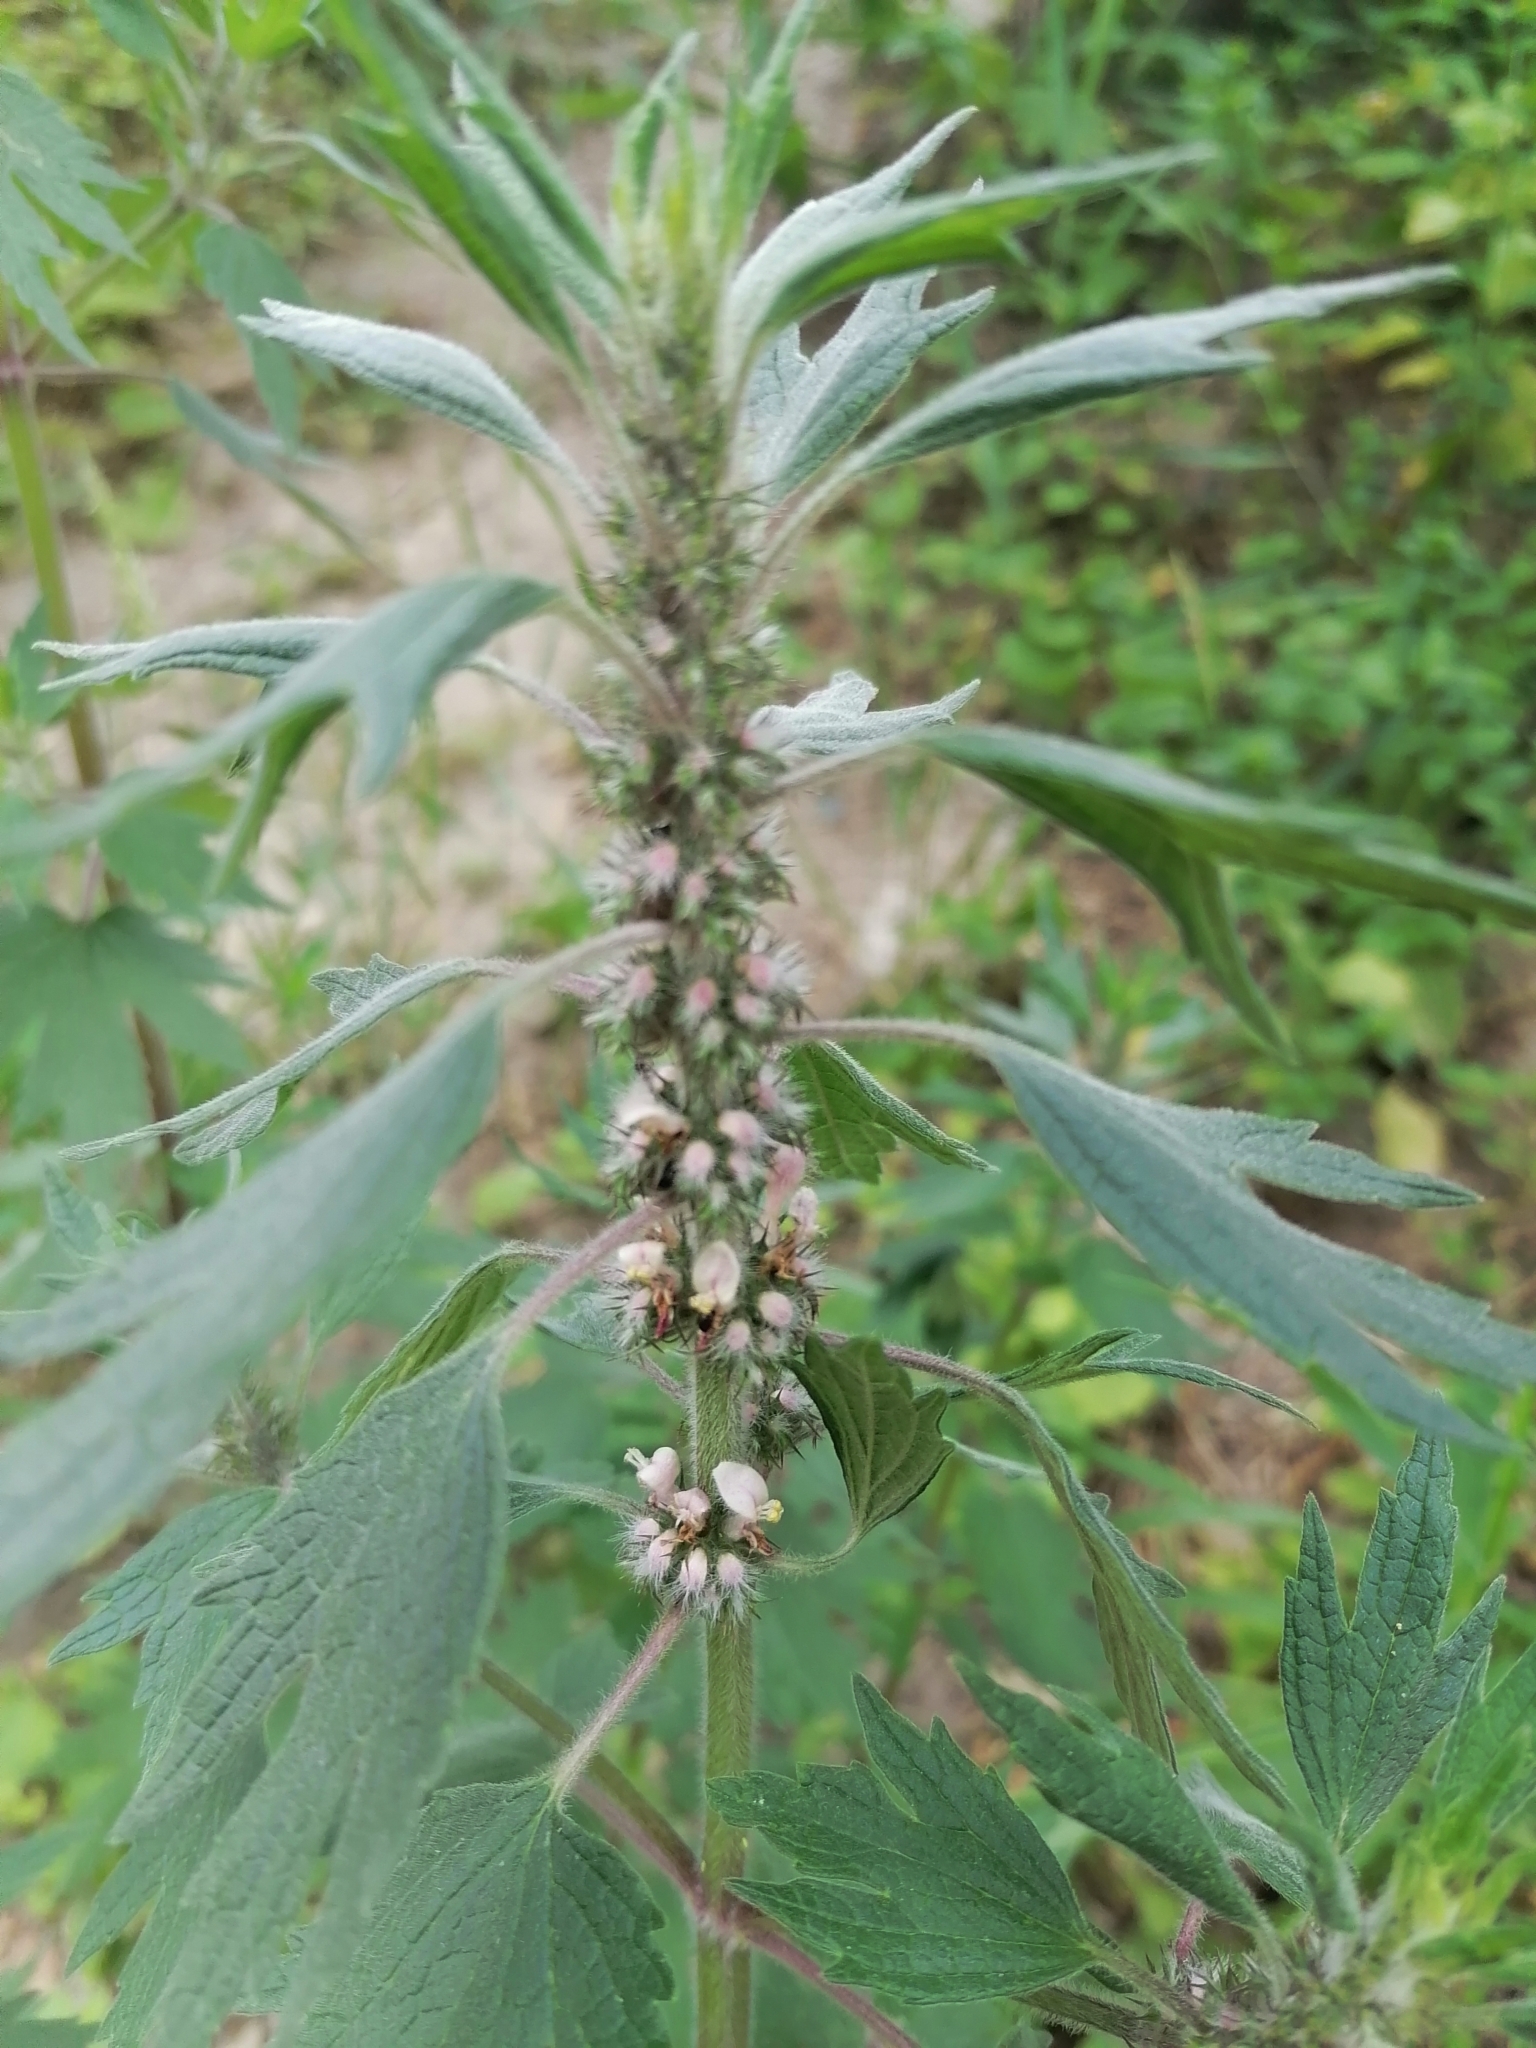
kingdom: Plantae
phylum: Tracheophyta
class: Magnoliopsida
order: Lamiales
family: Lamiaceae
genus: Leonurus
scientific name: Leonurus quinquelobatus
